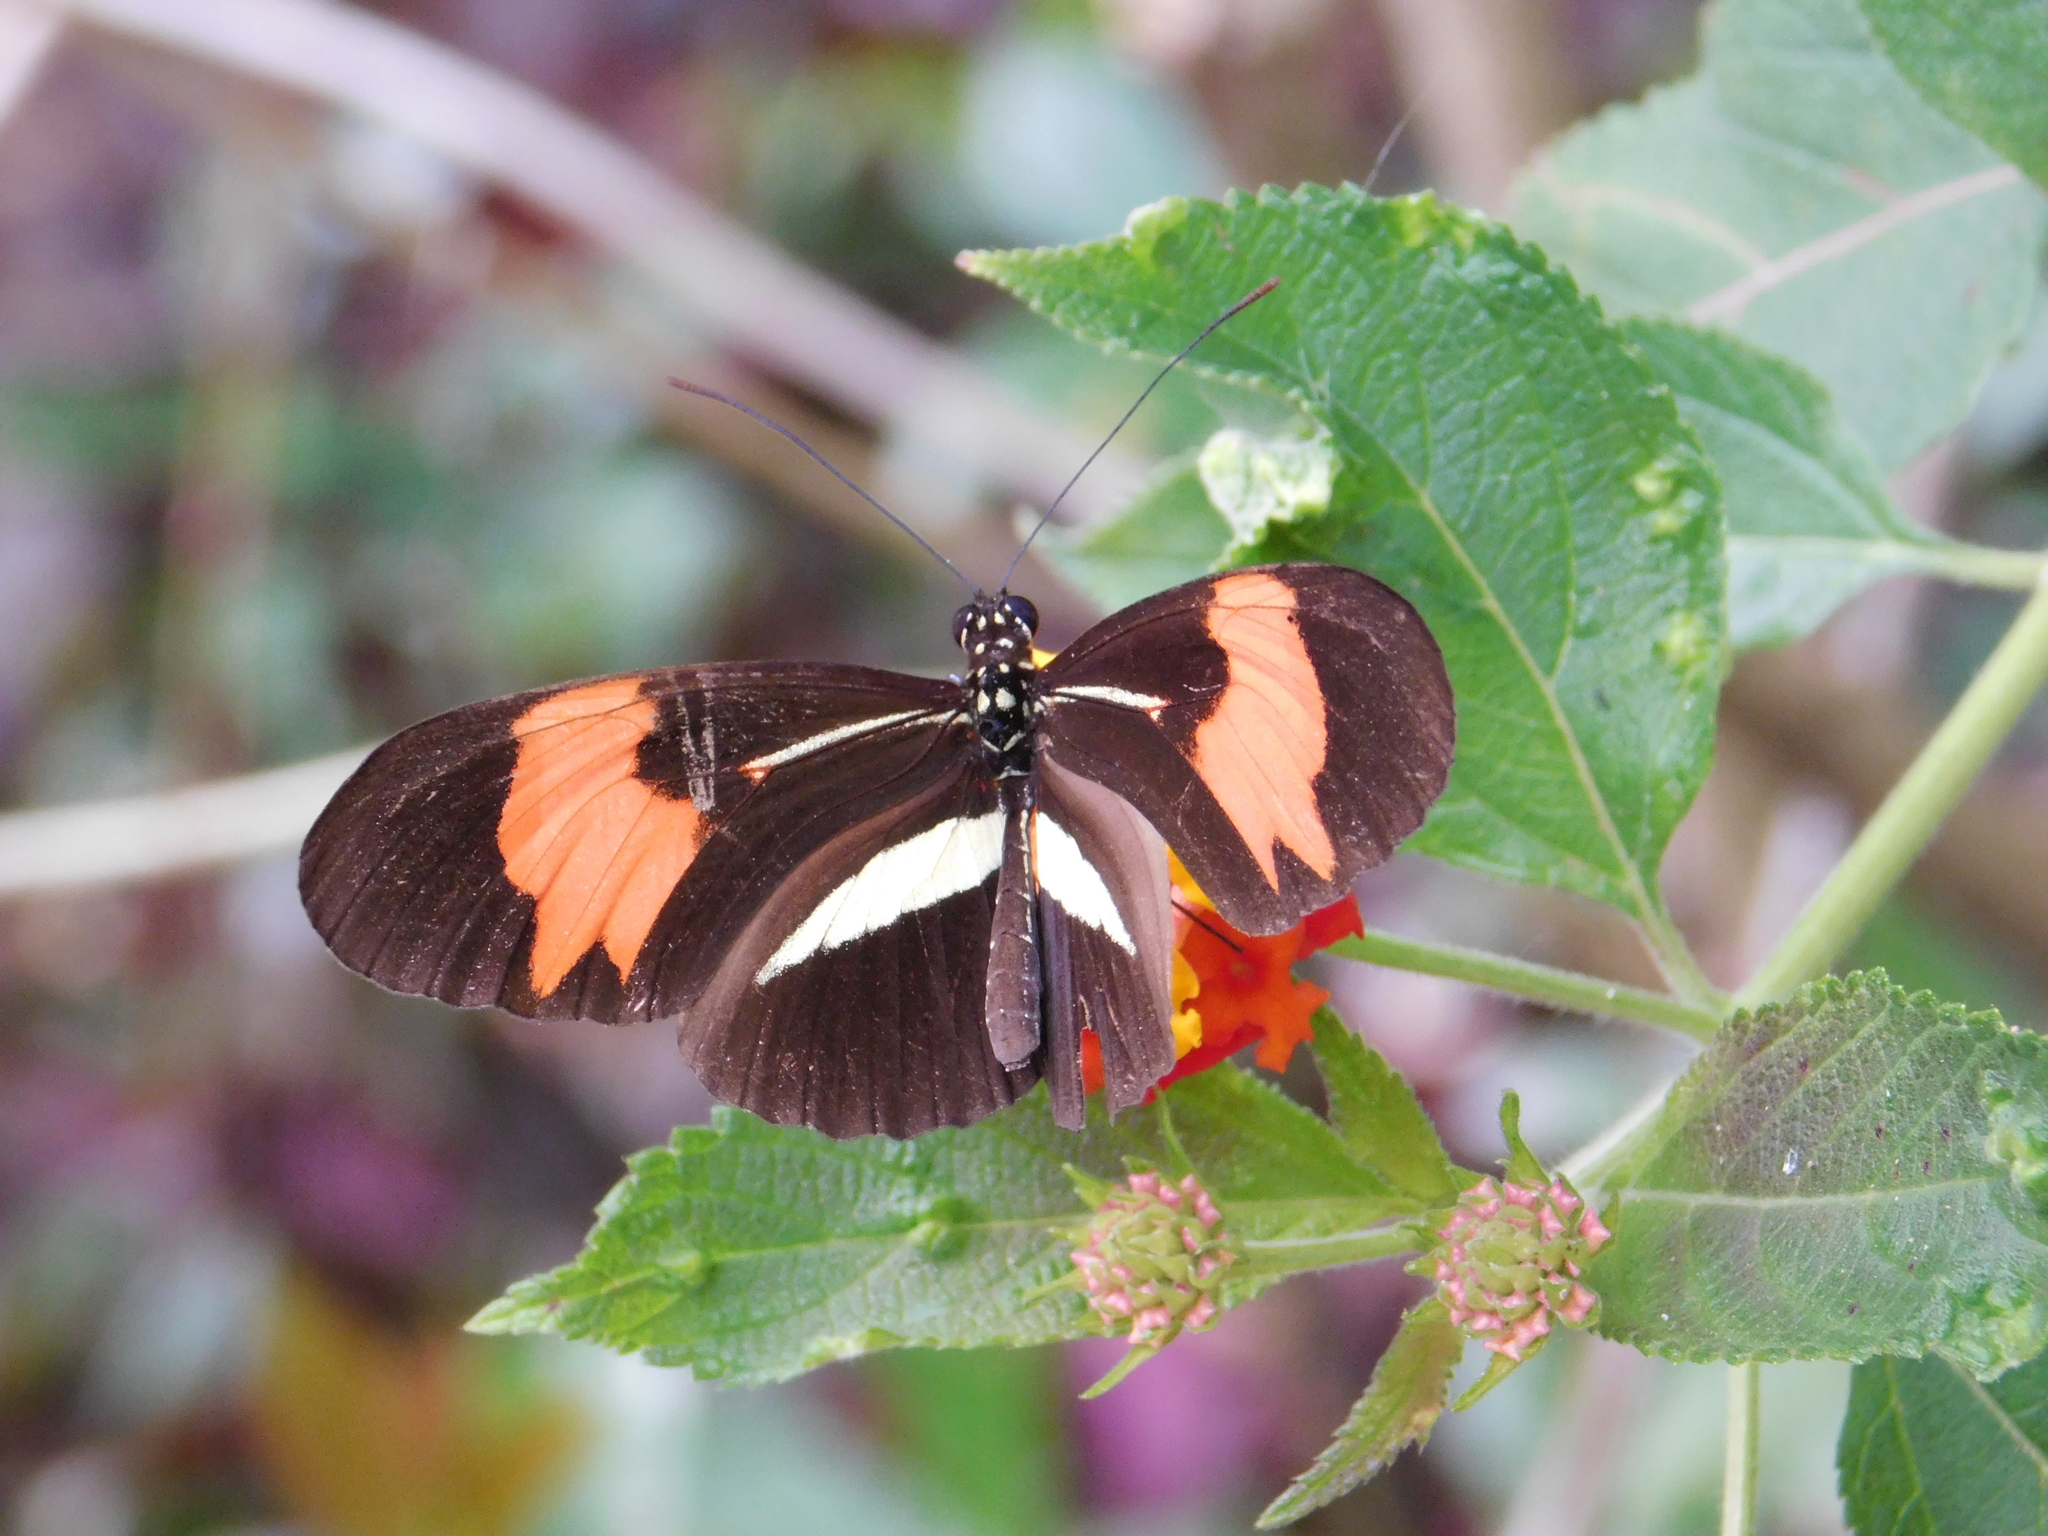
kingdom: Animalia
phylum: Arthropoda
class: Insecta
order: Lepidoptera
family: Nymphalidae
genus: Heliconius
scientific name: Heliconius erato
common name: Common patch longwing
